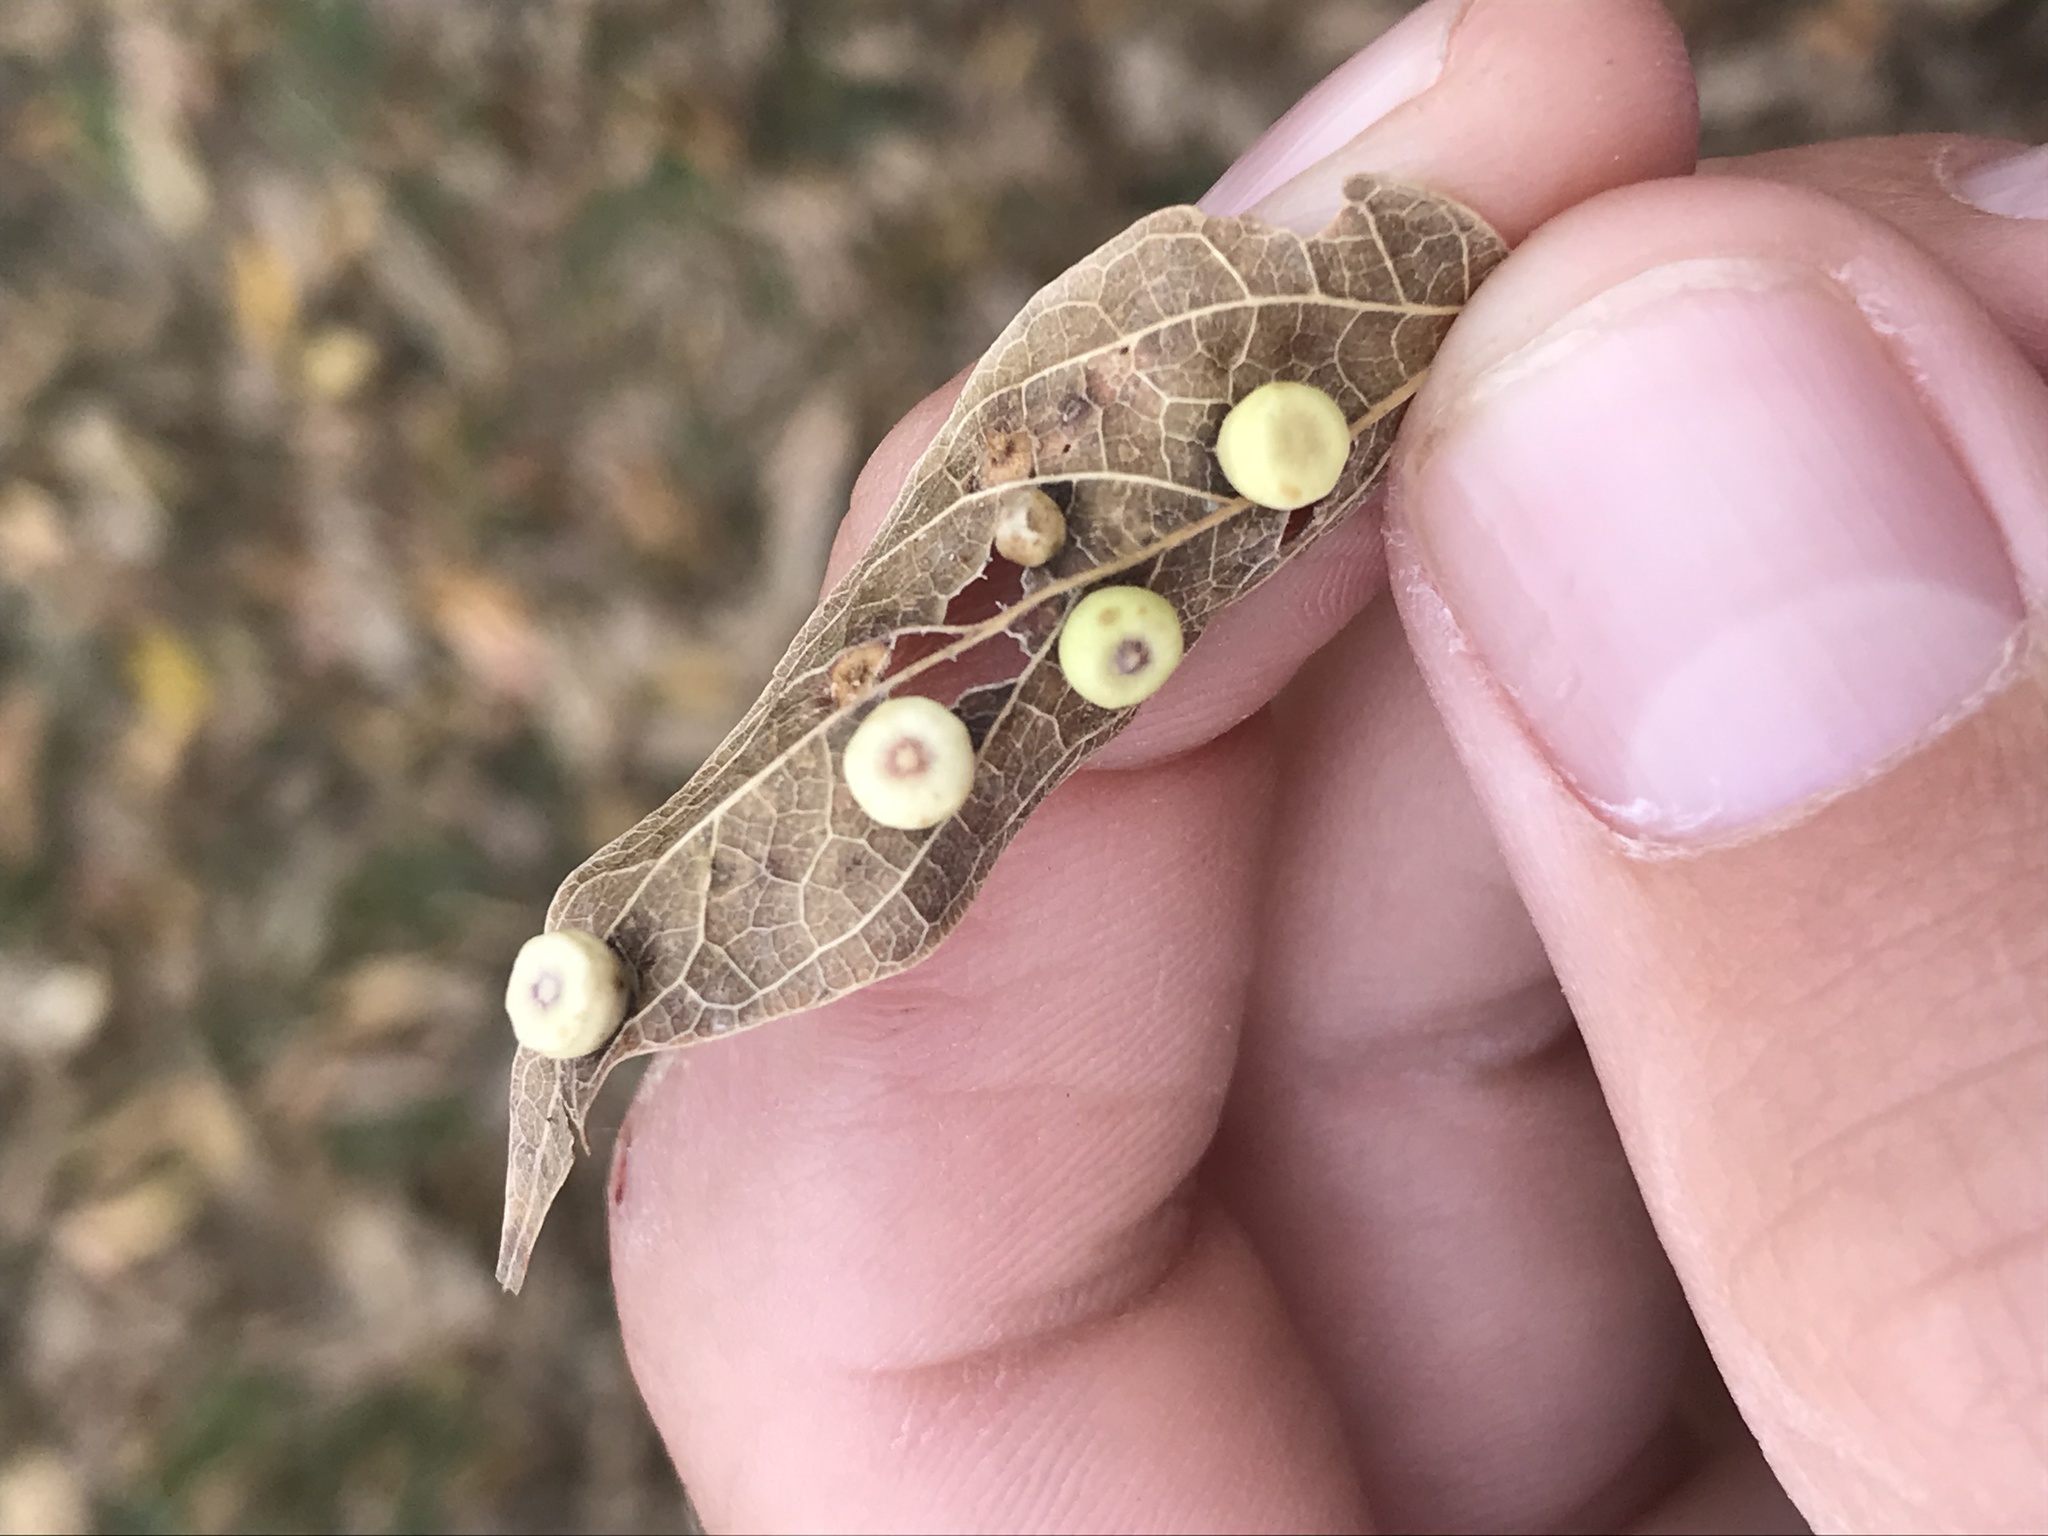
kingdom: Animalia
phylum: Arthropoda
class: Insecta
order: Hemiptera
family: Aphalaridae
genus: Pachypsylla
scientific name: Pachypsylla celtidismamma
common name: Hackberry nipplegall psyllid
